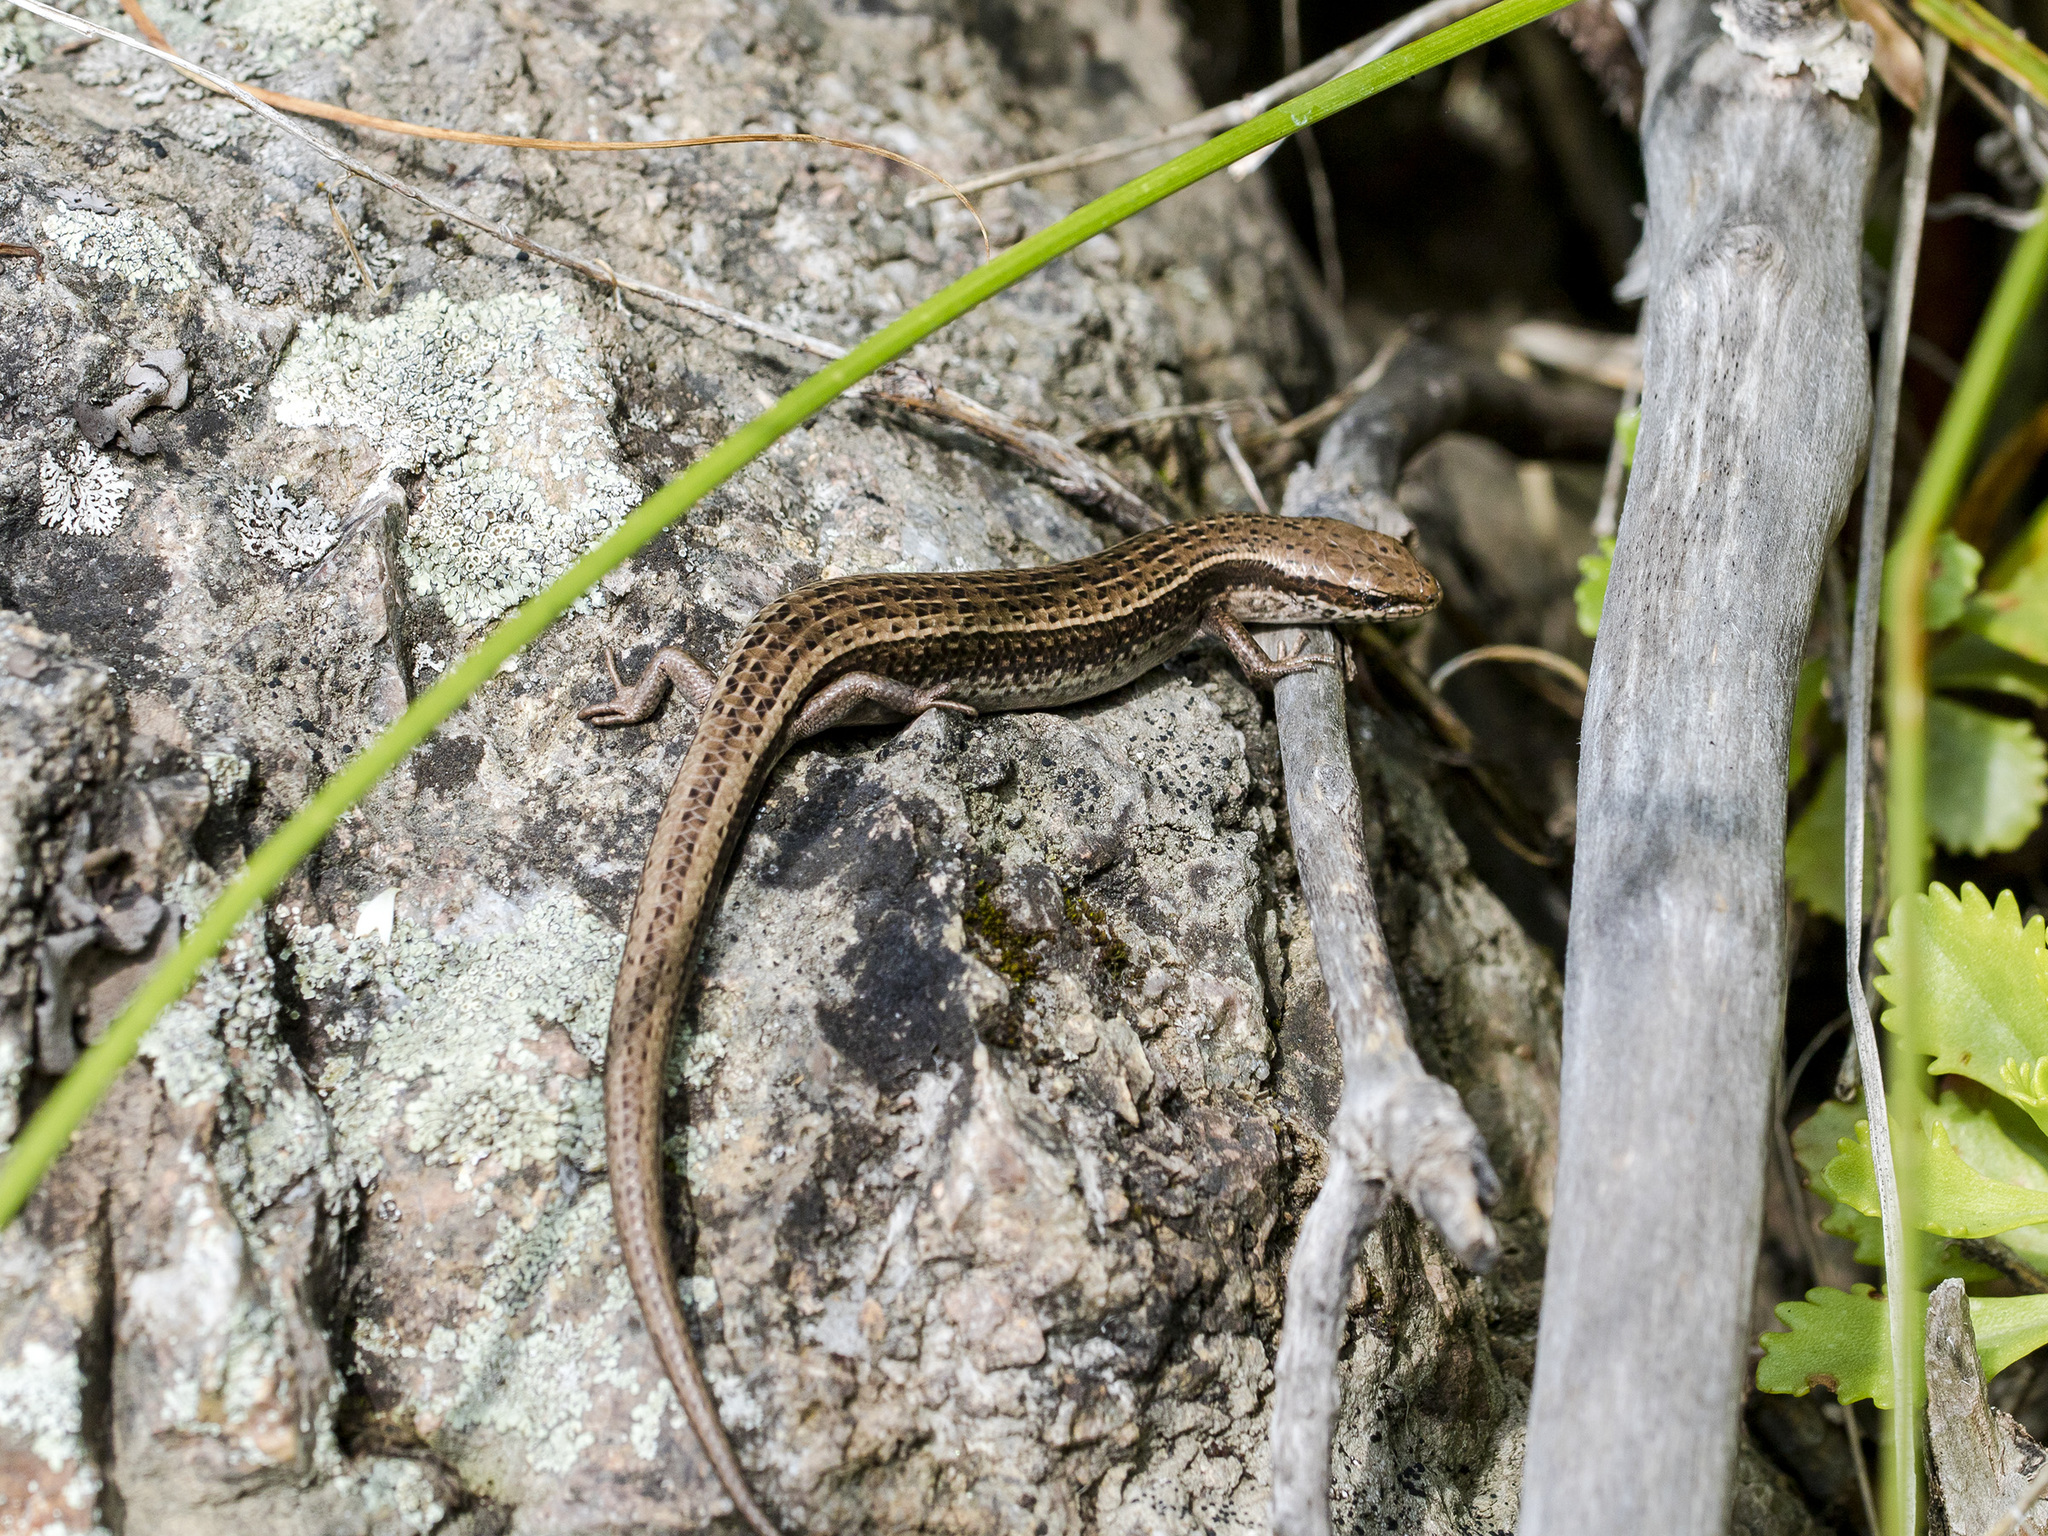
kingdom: Animalia
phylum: Chordata
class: Squamata
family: Scincidae
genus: Asymblepharus
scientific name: Asymblepharus alaicus
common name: Alai ground skink
